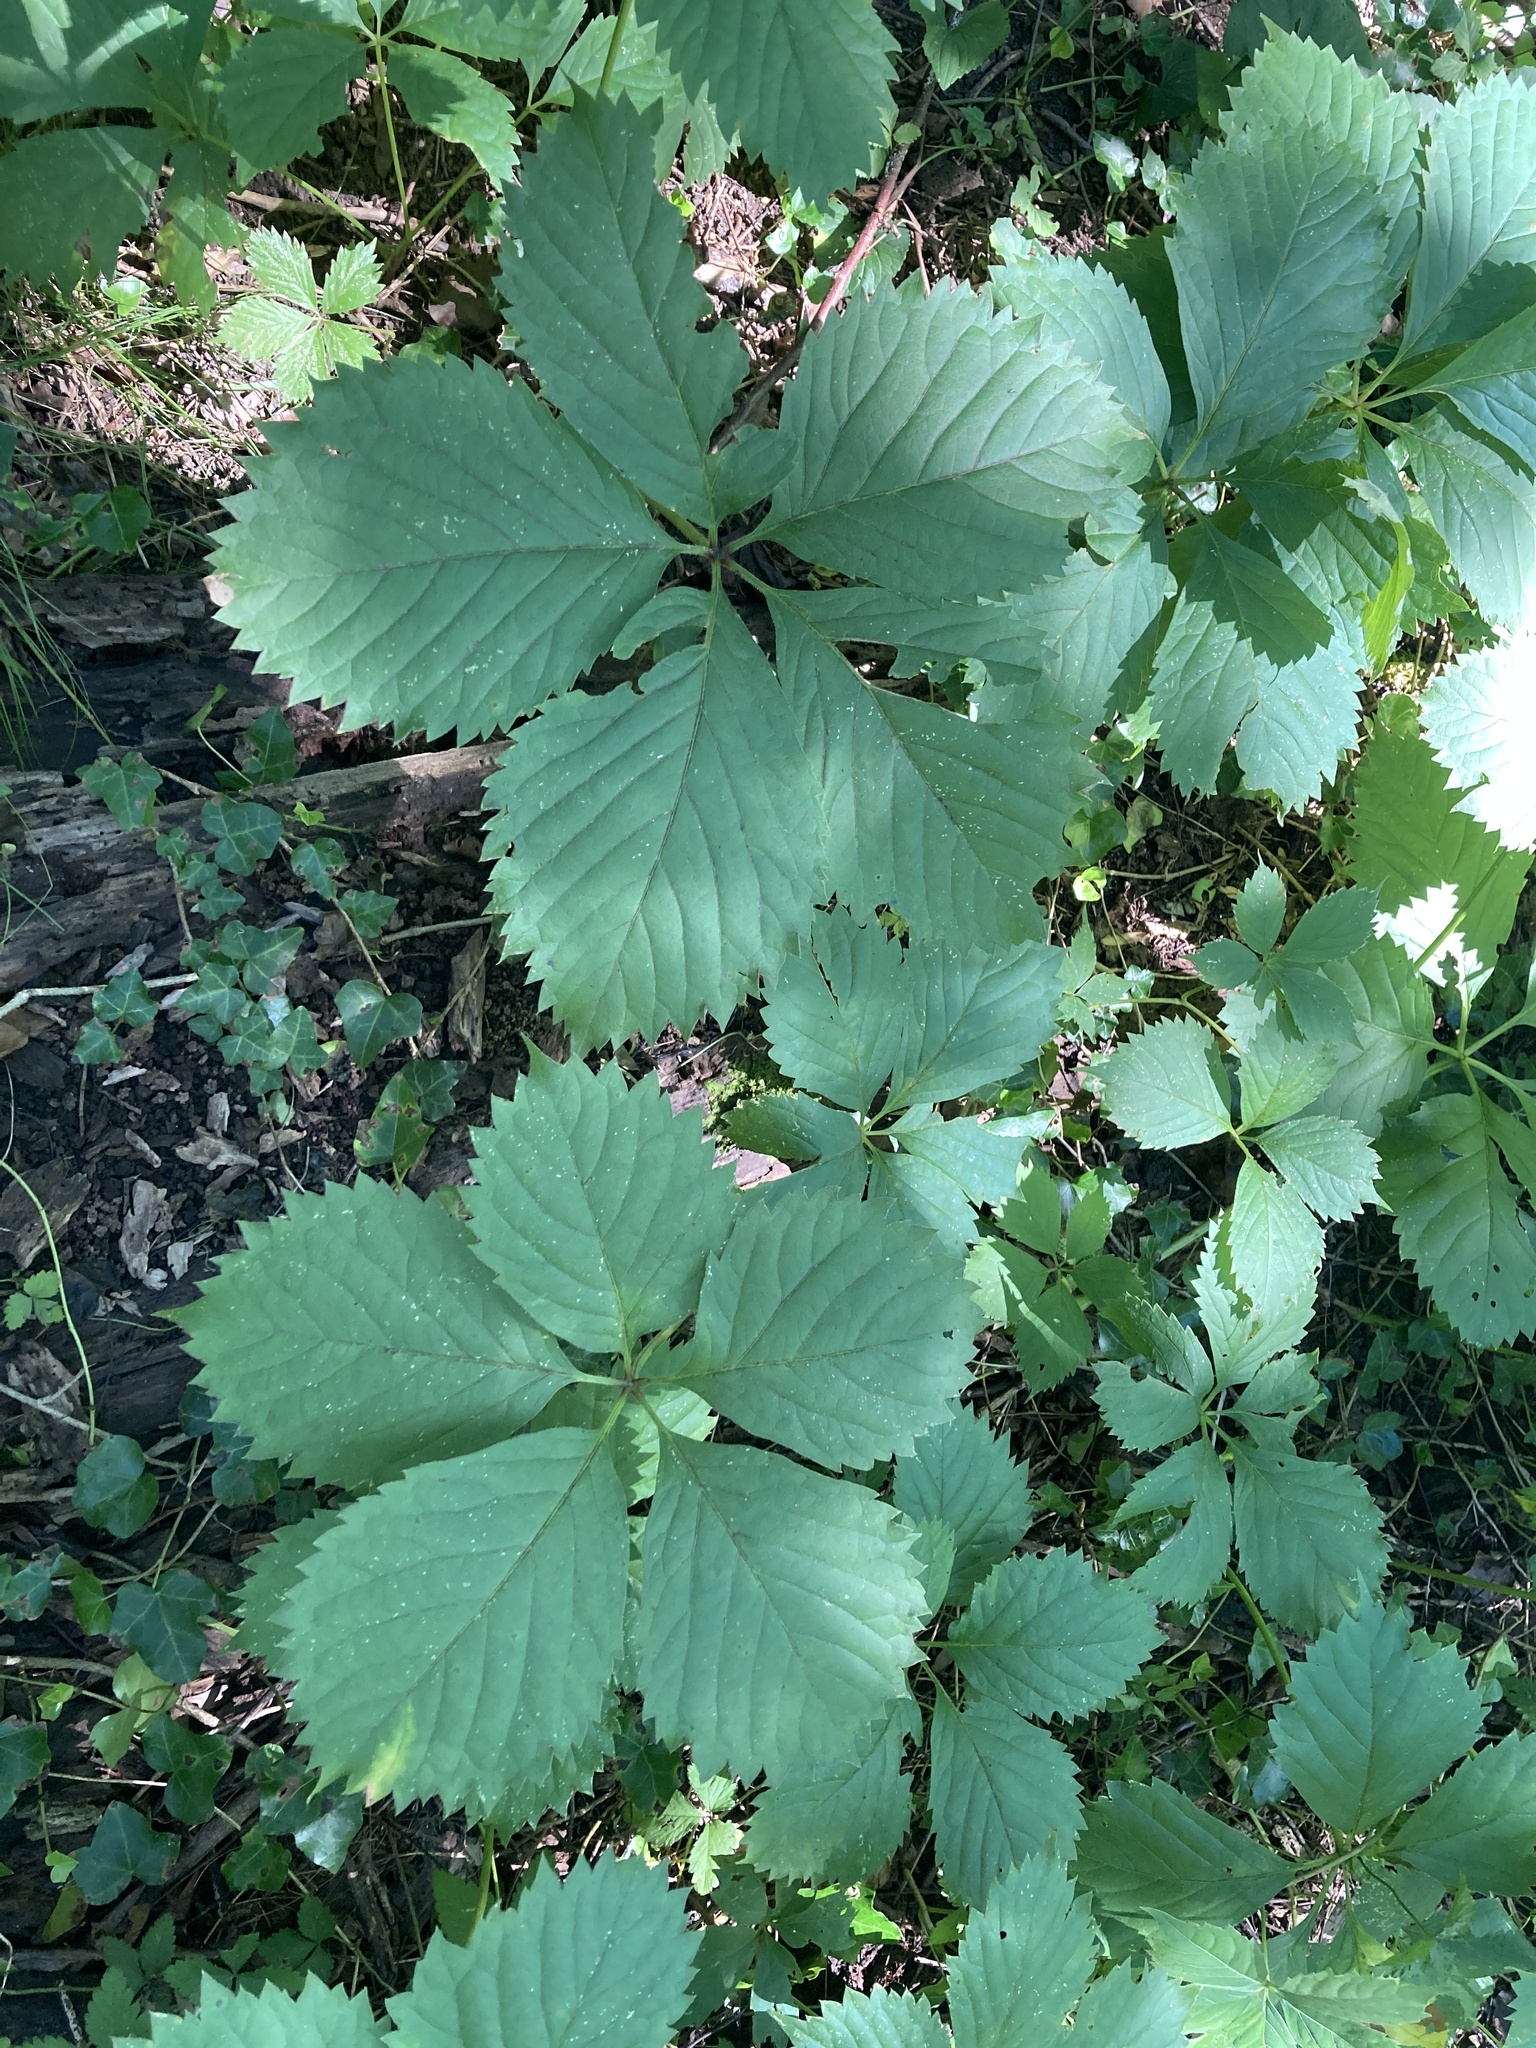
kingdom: Plantae
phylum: Tracheophyta
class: Magnoliopsida
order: Vitales
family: Vitaceae
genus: Parthenocissus
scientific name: Parthenocissus inserta
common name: False virginia-creeper
